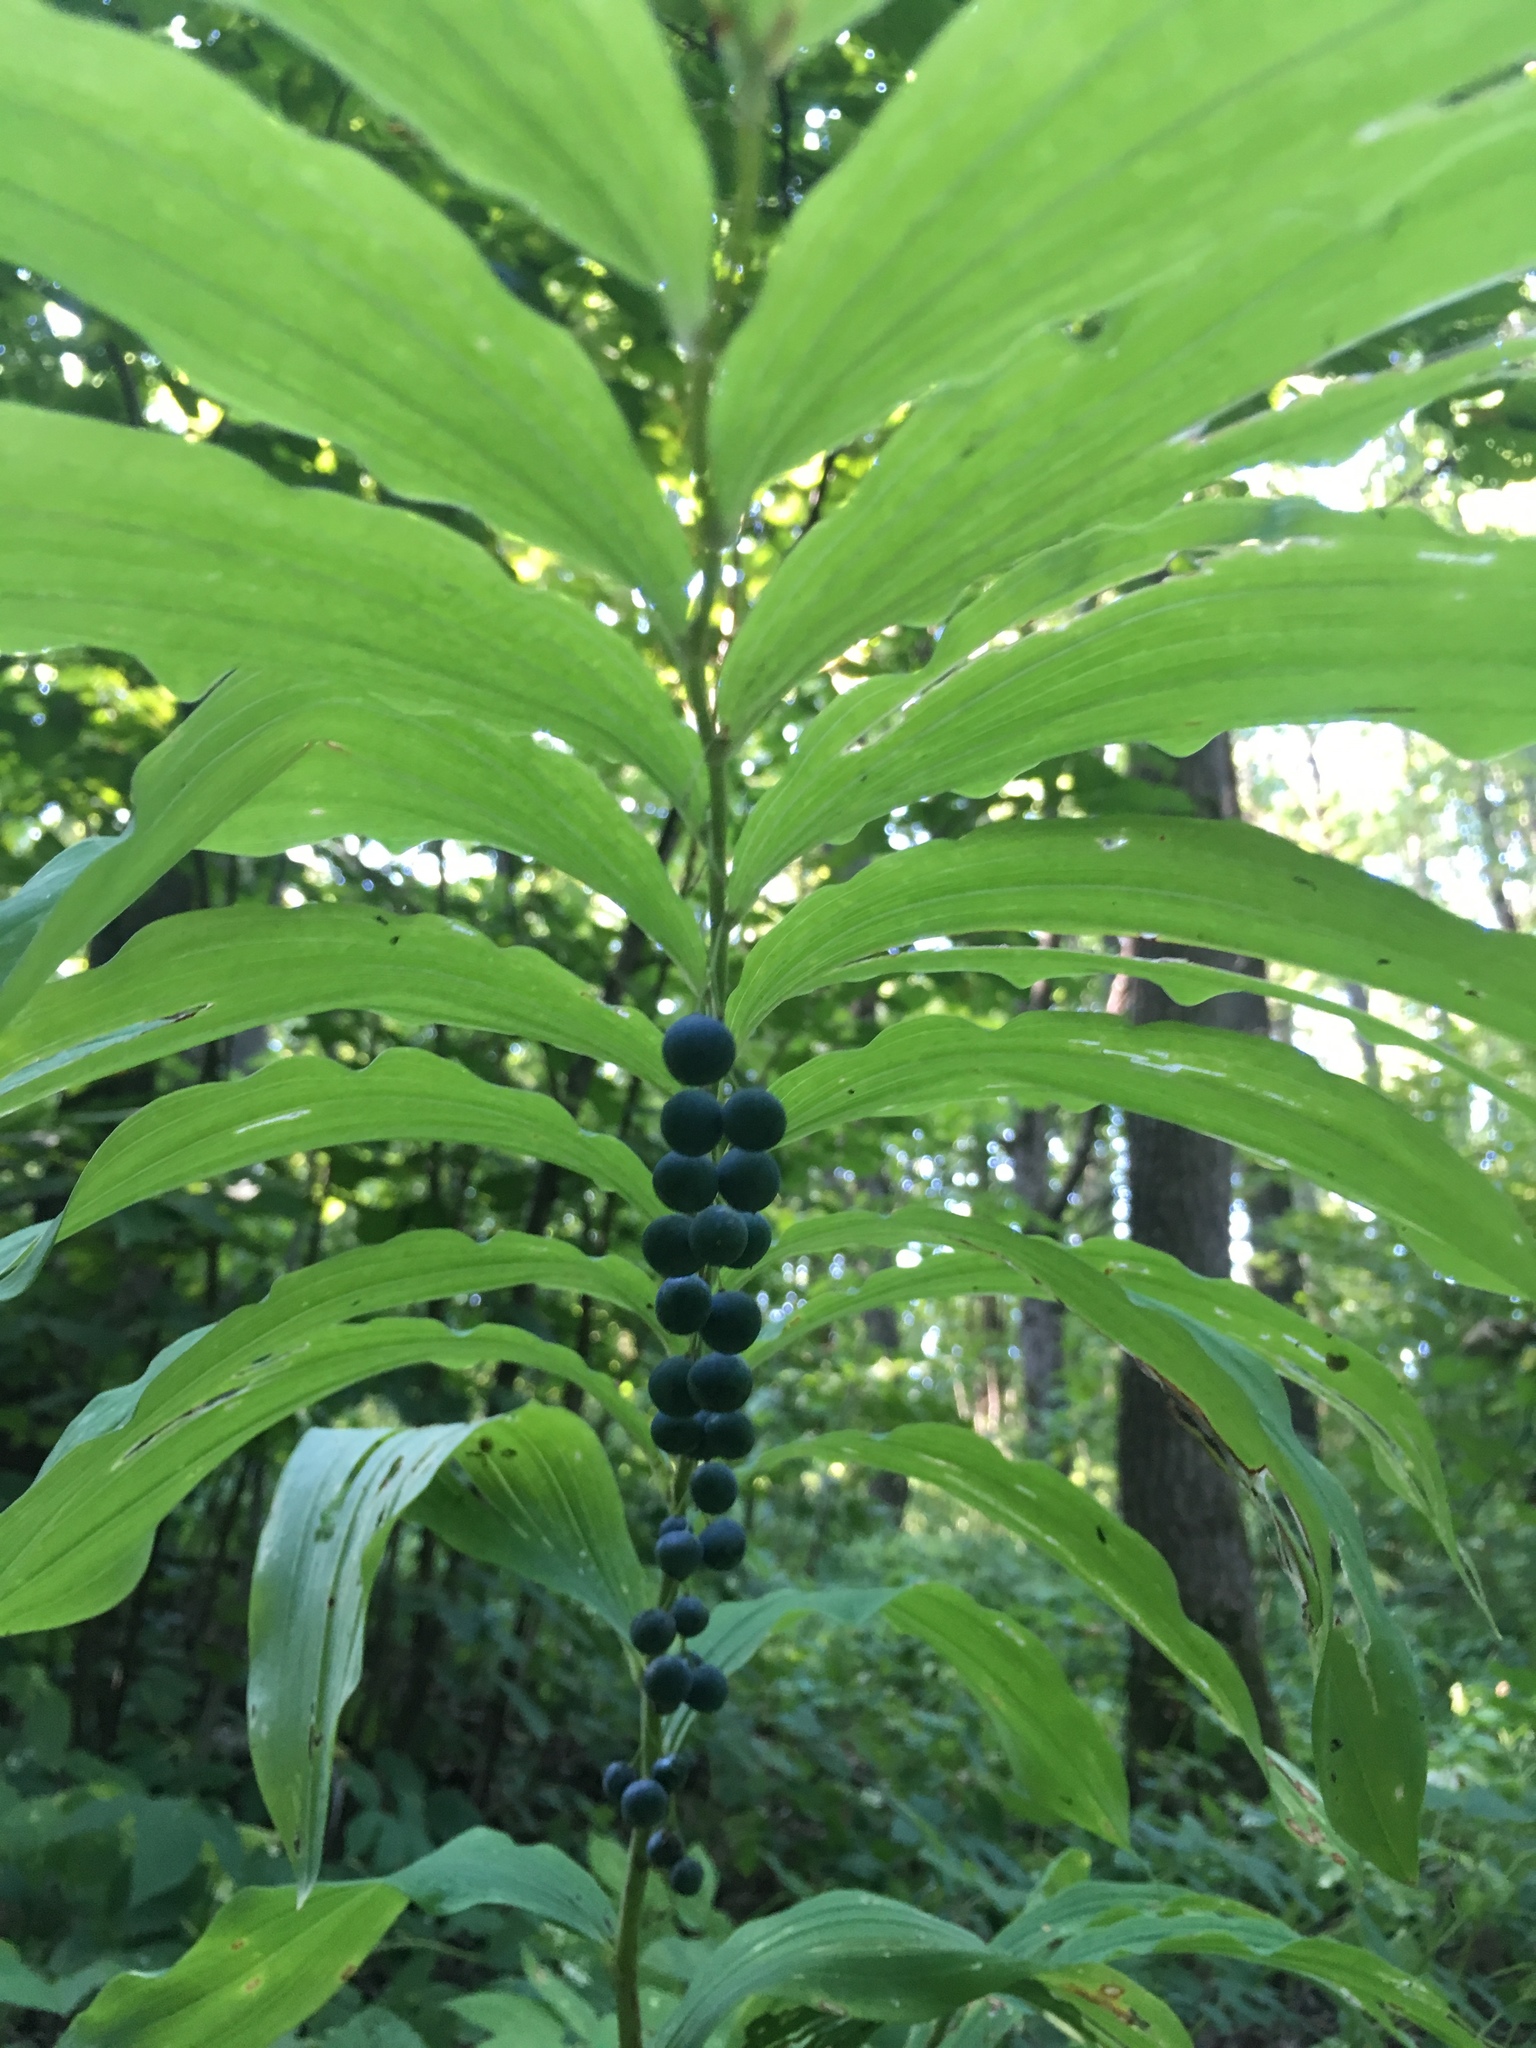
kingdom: Plantae
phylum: Tracheophyta
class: Liliopsida
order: Asparagales
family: Asparagaceae
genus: Polygonatum
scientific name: Polygonatum multiflorum
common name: Solomon's-seal
